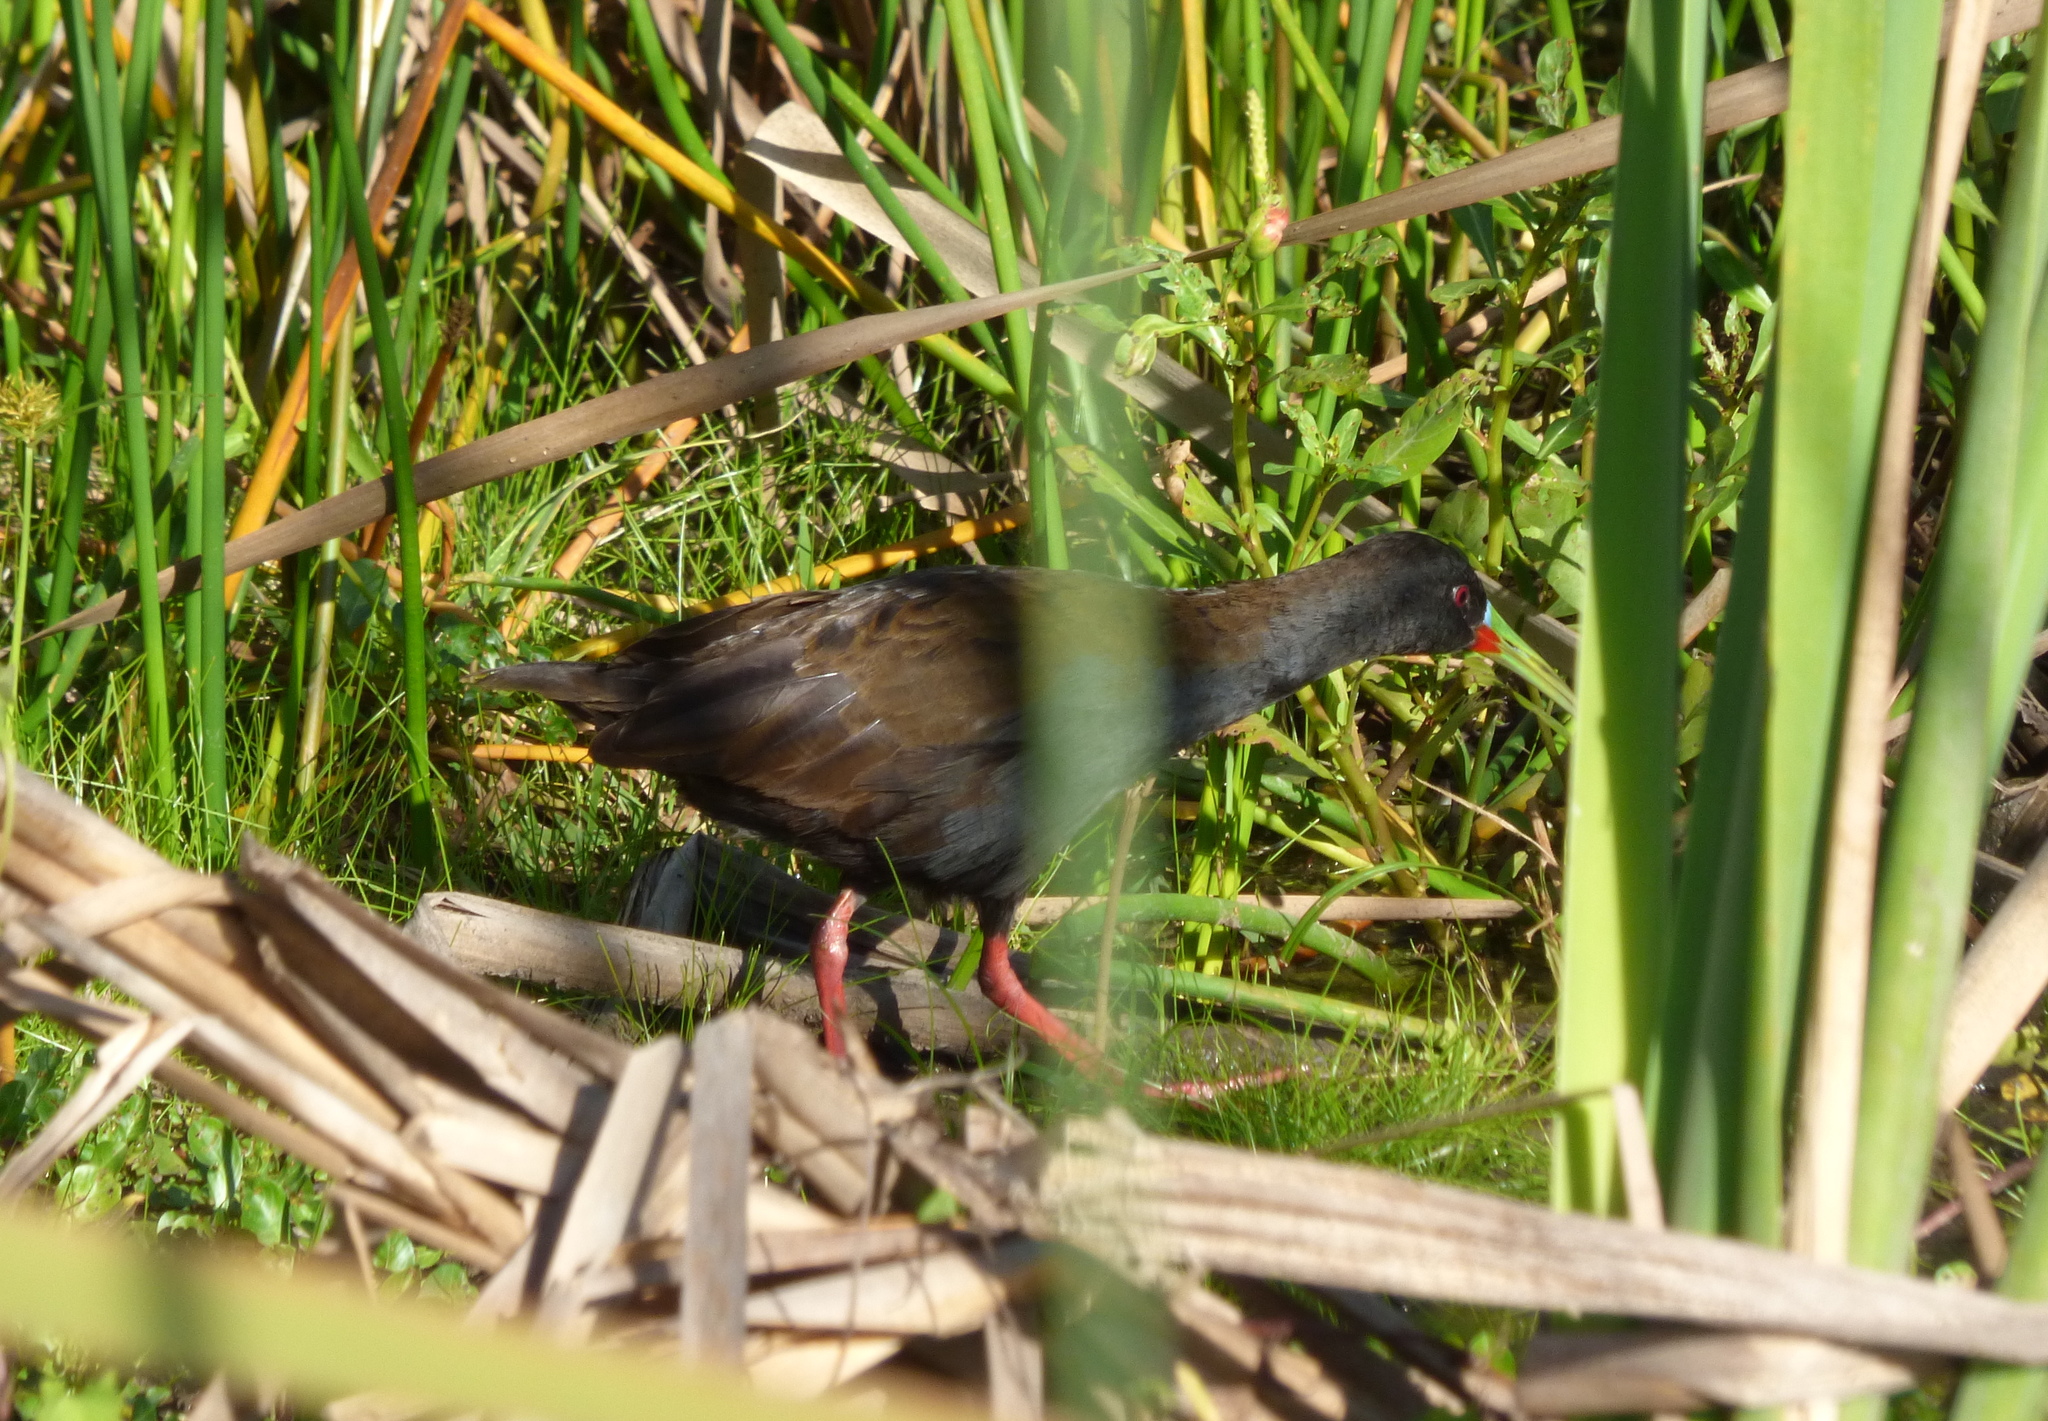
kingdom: Animalia
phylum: Chordata
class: Aves
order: Gruiformes
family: Rallidae
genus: Pardirallus
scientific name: Pardirallus sanguinolentus
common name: Plumbeous rail
